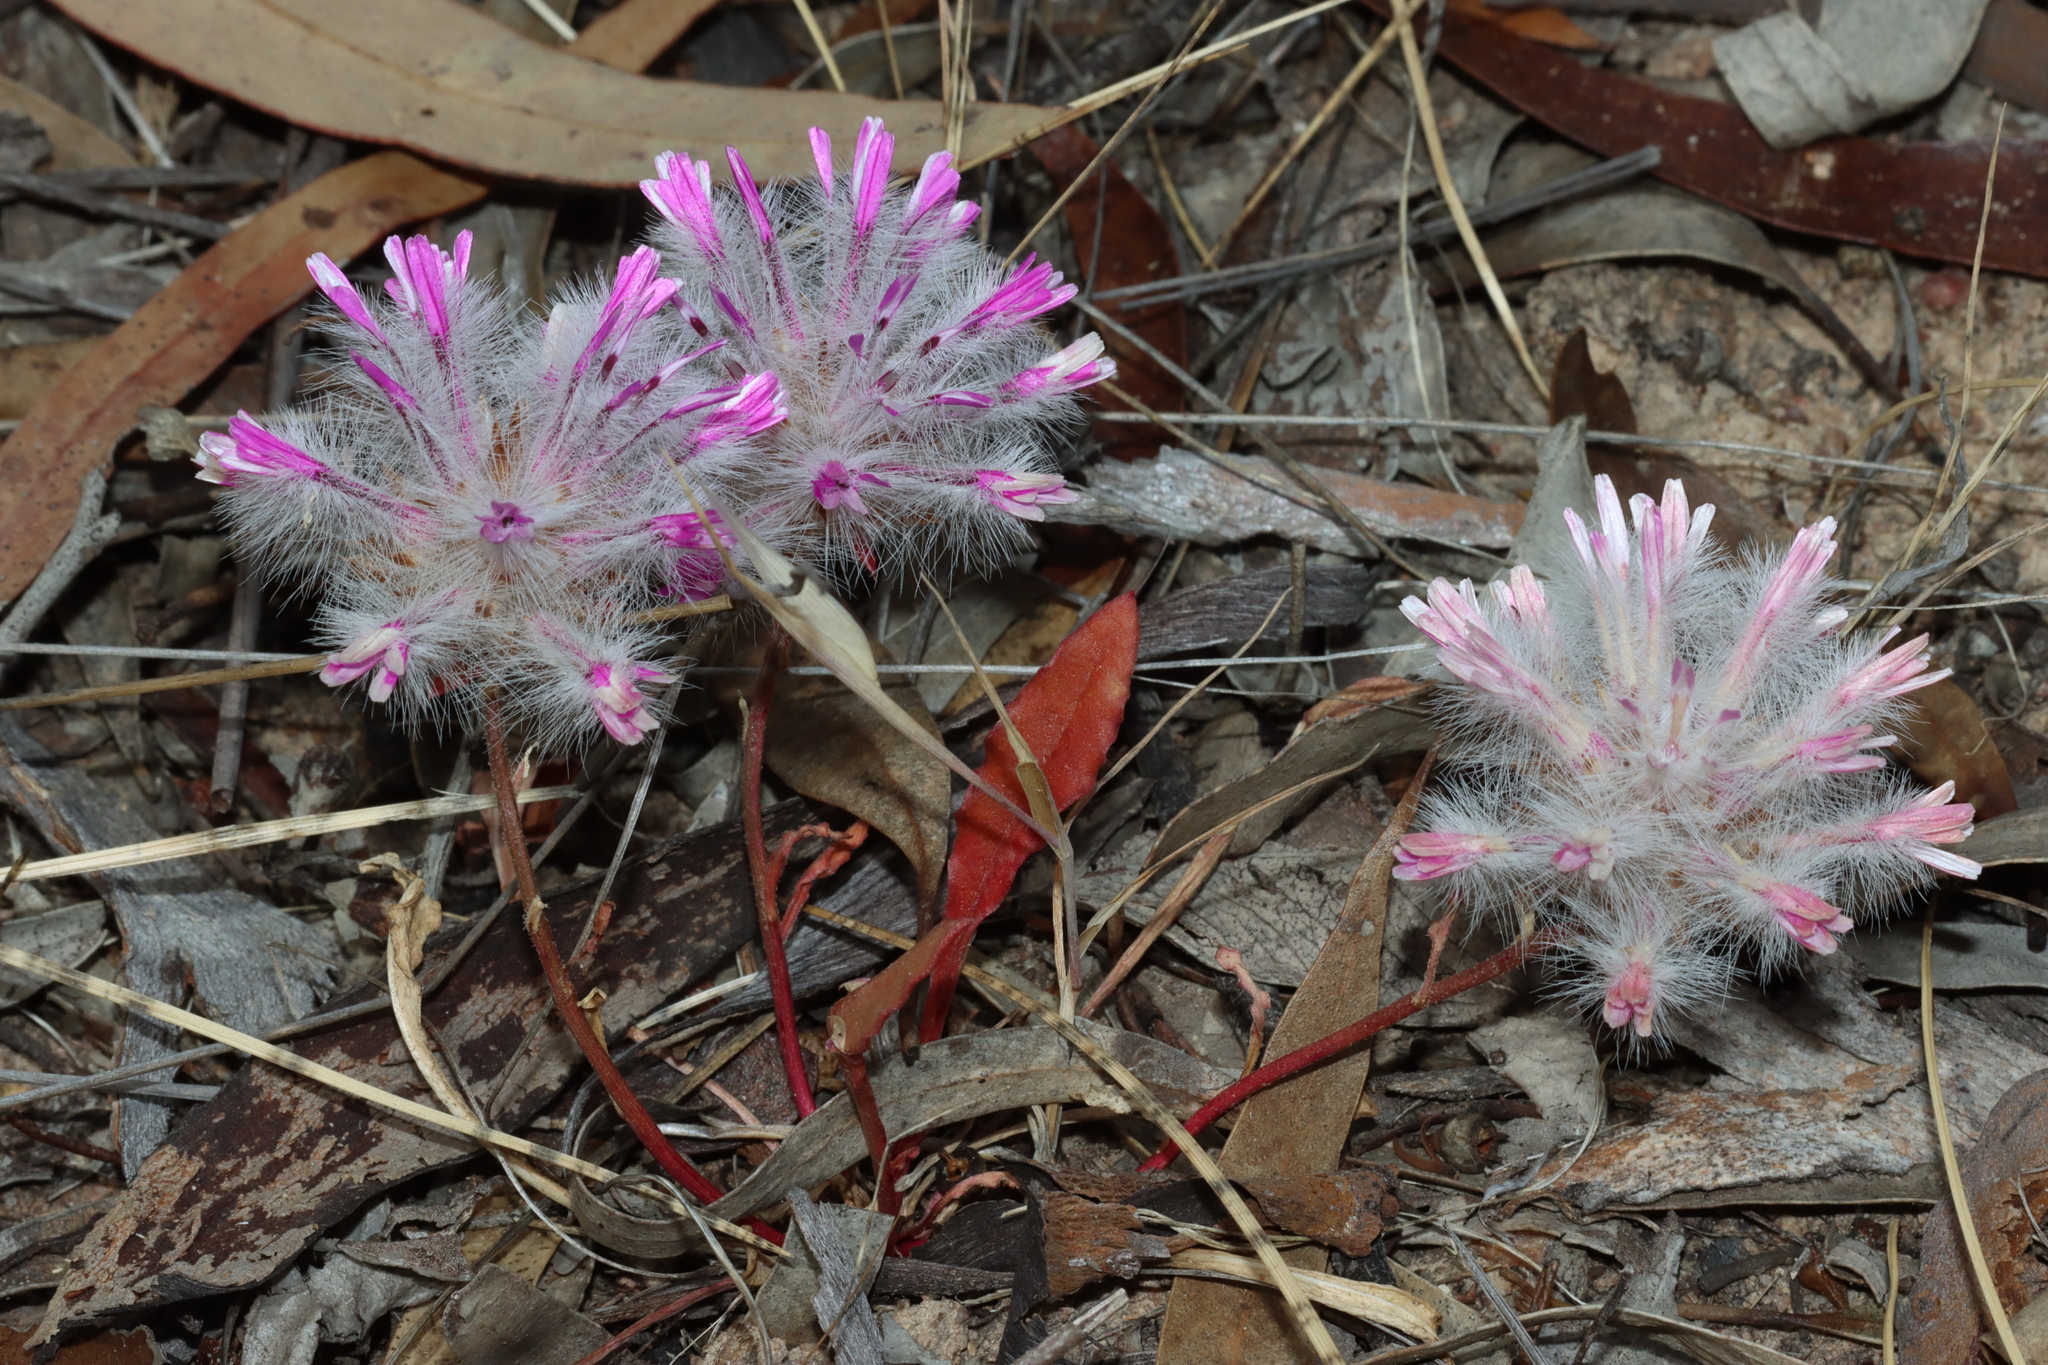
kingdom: Plantae
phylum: Tracheophyta
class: Magnoliopsida
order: Caryophyllales
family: Amaranthaceae
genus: Ptilotus
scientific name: Ptilotus manglesii
